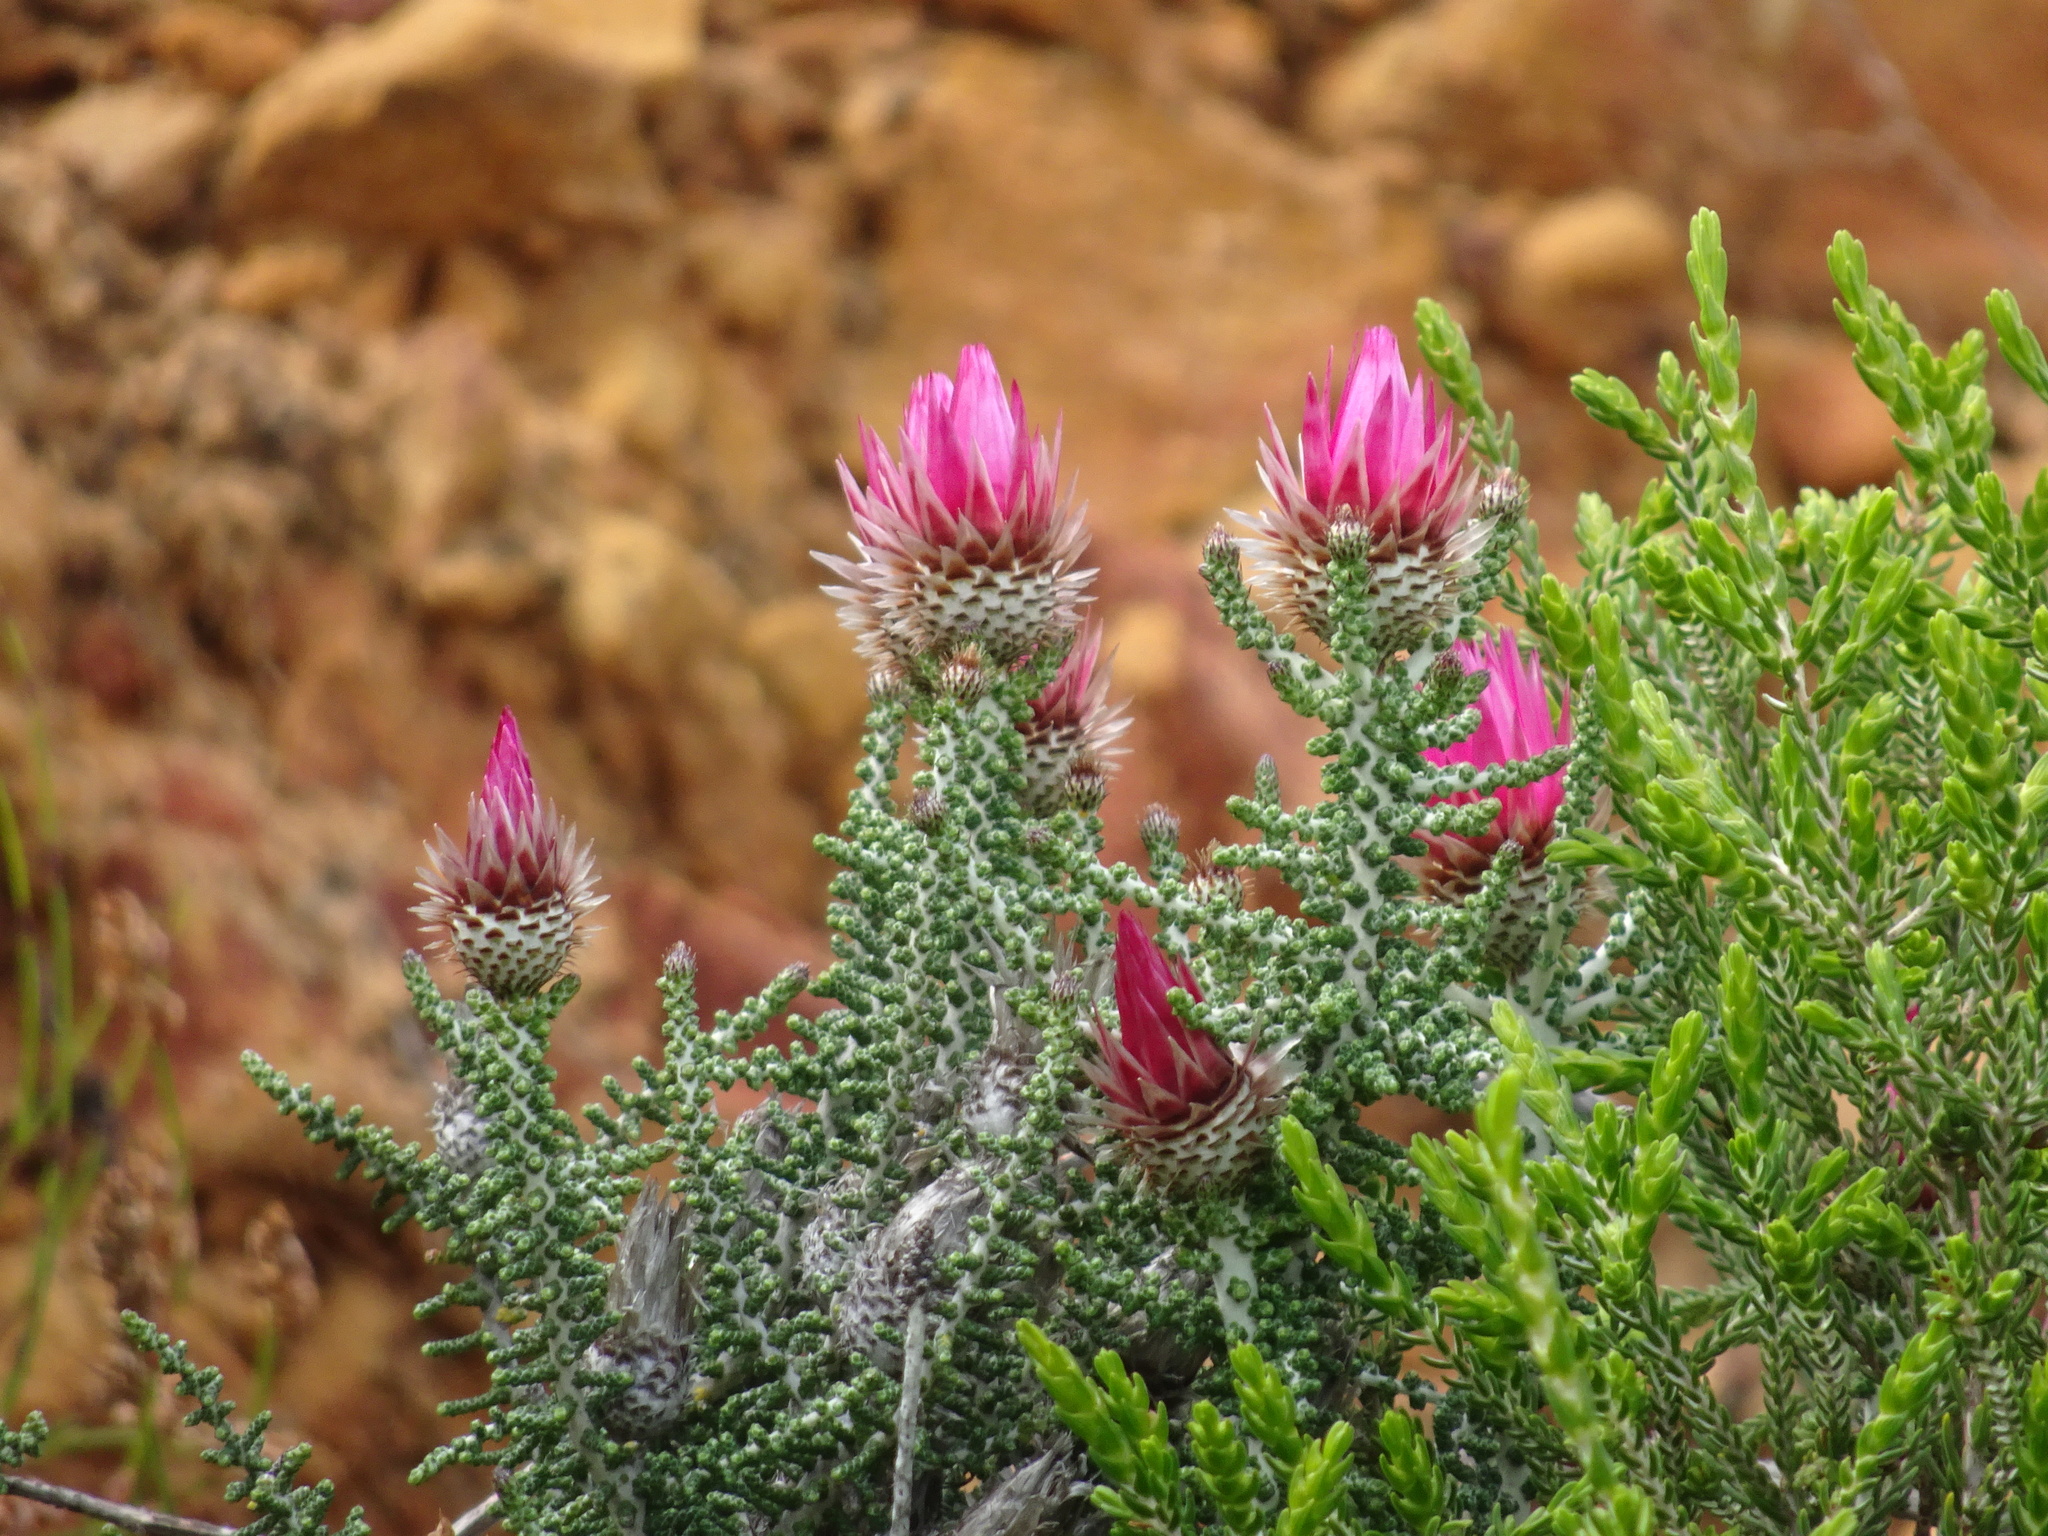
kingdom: Plantae
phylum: Tracheophyta
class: Magnoliopsida
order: Asterales
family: Asteraceae
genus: Phaenocoma
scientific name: Phaenocoma prolifera
